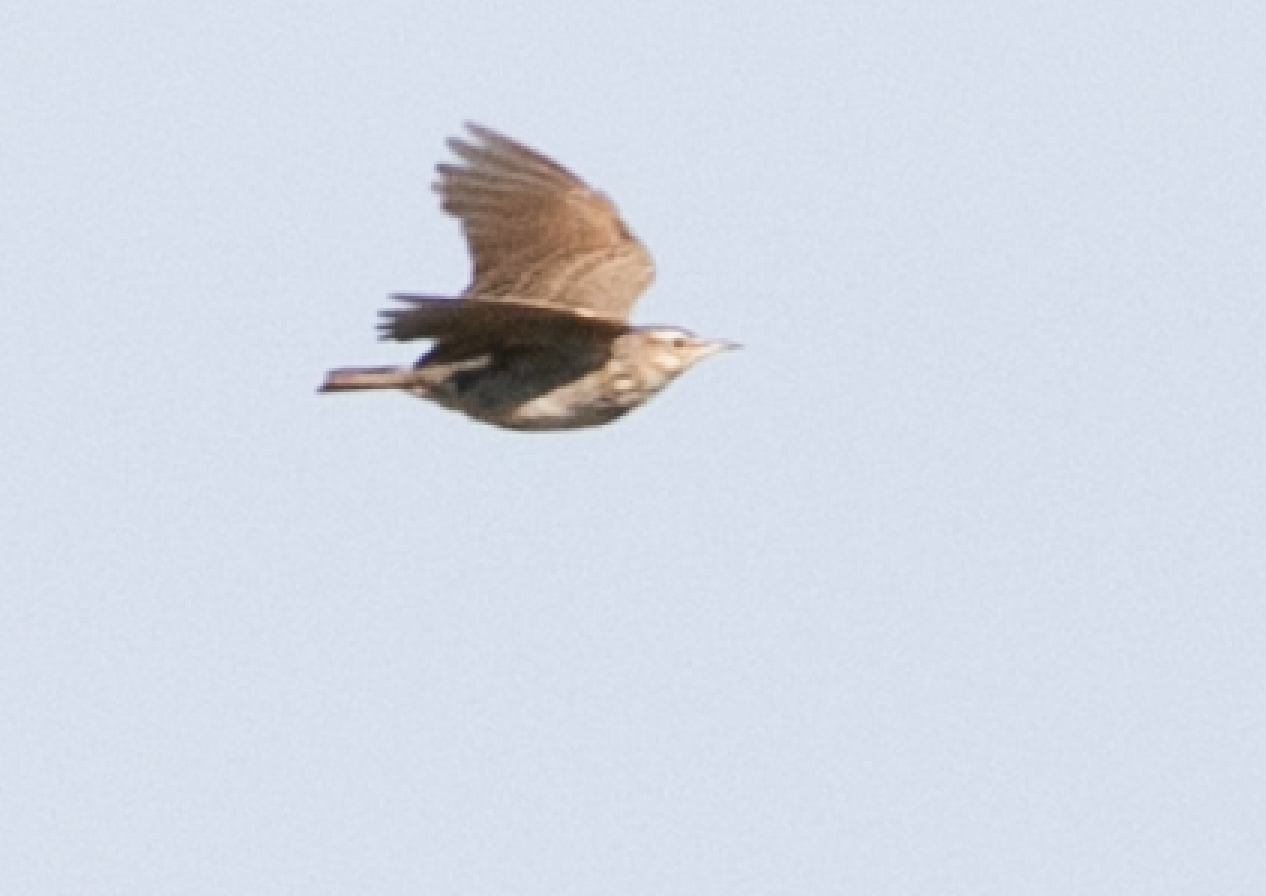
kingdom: Animalia
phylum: Chordata
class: Aves
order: Passeriformes
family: Alaudidae
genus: Galerida
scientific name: Galerida cristata
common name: Crested lark
